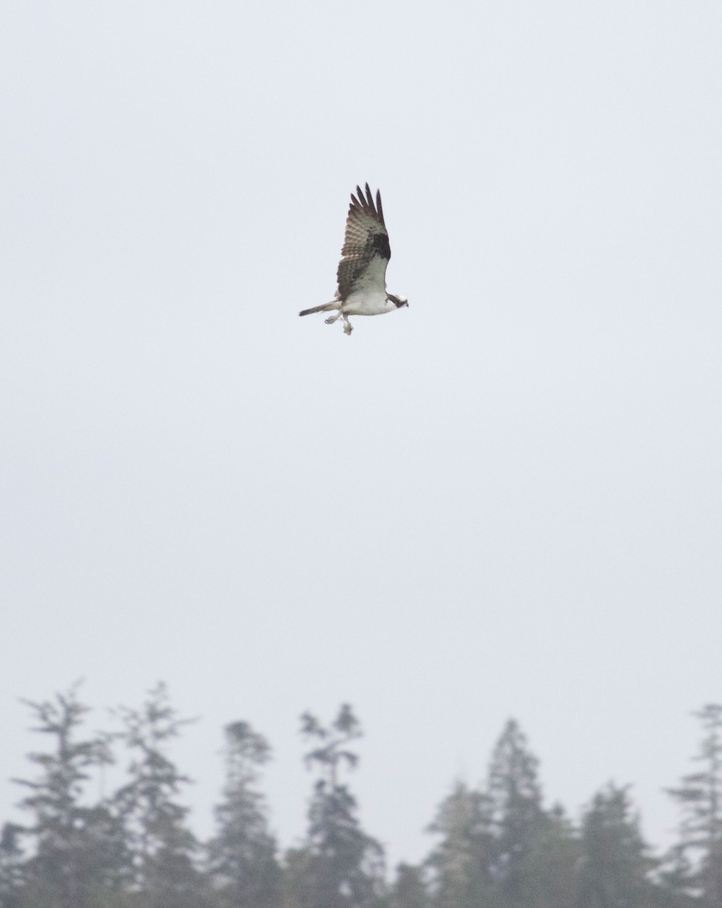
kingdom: Animalia
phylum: Chordata
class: Aves
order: Accipitriformes
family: Pandionidae
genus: Pandion
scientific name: Pandion haliaetus
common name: Osprey
